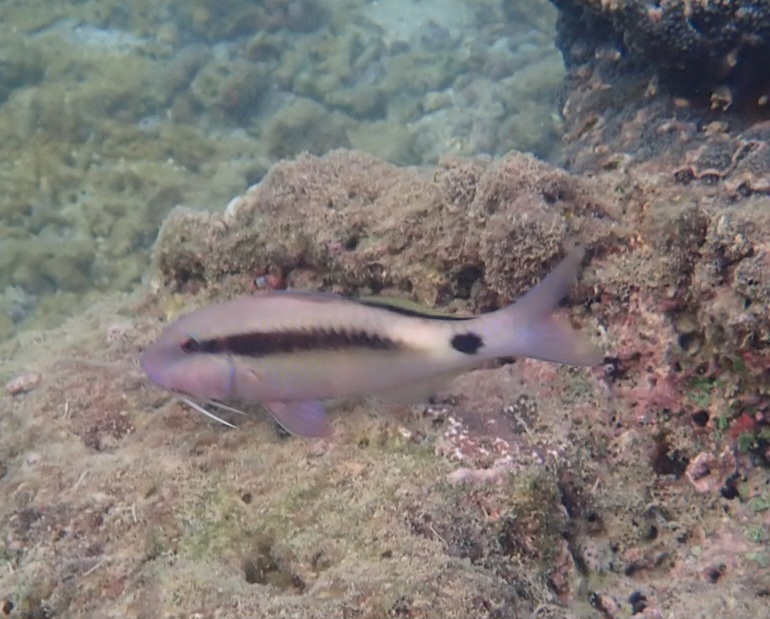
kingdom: Animalia
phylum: Chordata
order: Perciformes
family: Mullidae
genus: Parupeneus
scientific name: Parupeneus macronemus
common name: Long-barbel goatfish
